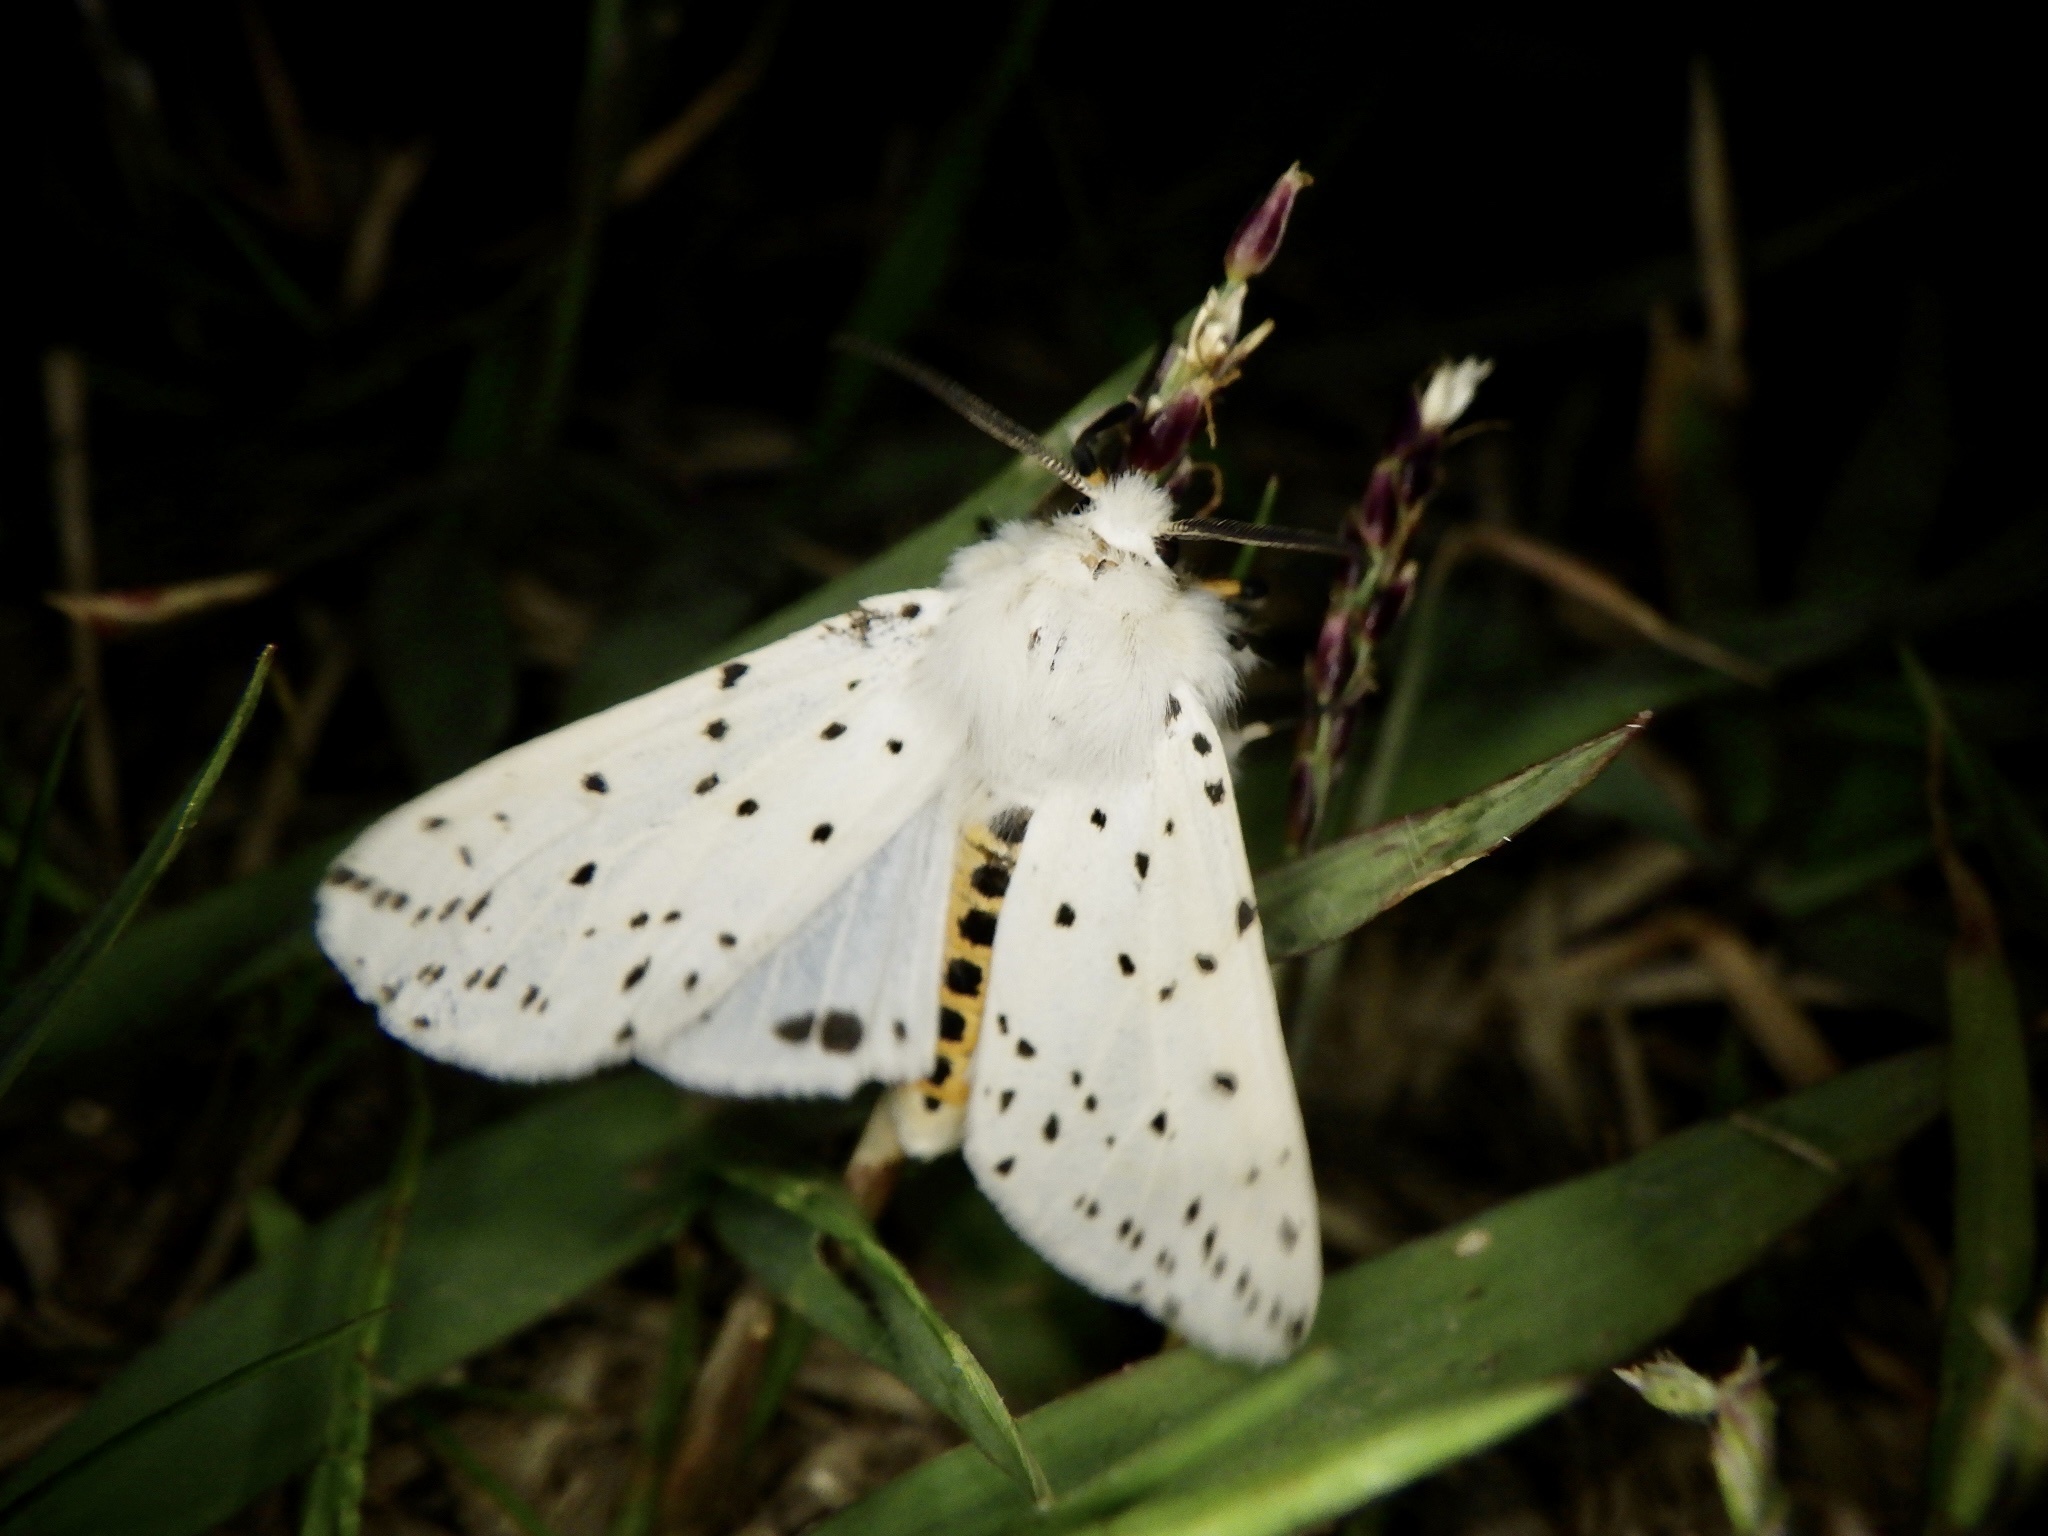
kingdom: Animalia
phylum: Arthropoda
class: Insecta
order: Lepidoptera
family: Erebidae
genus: Spilosoma
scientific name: Spilosoma lubricipeda
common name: White ermine
